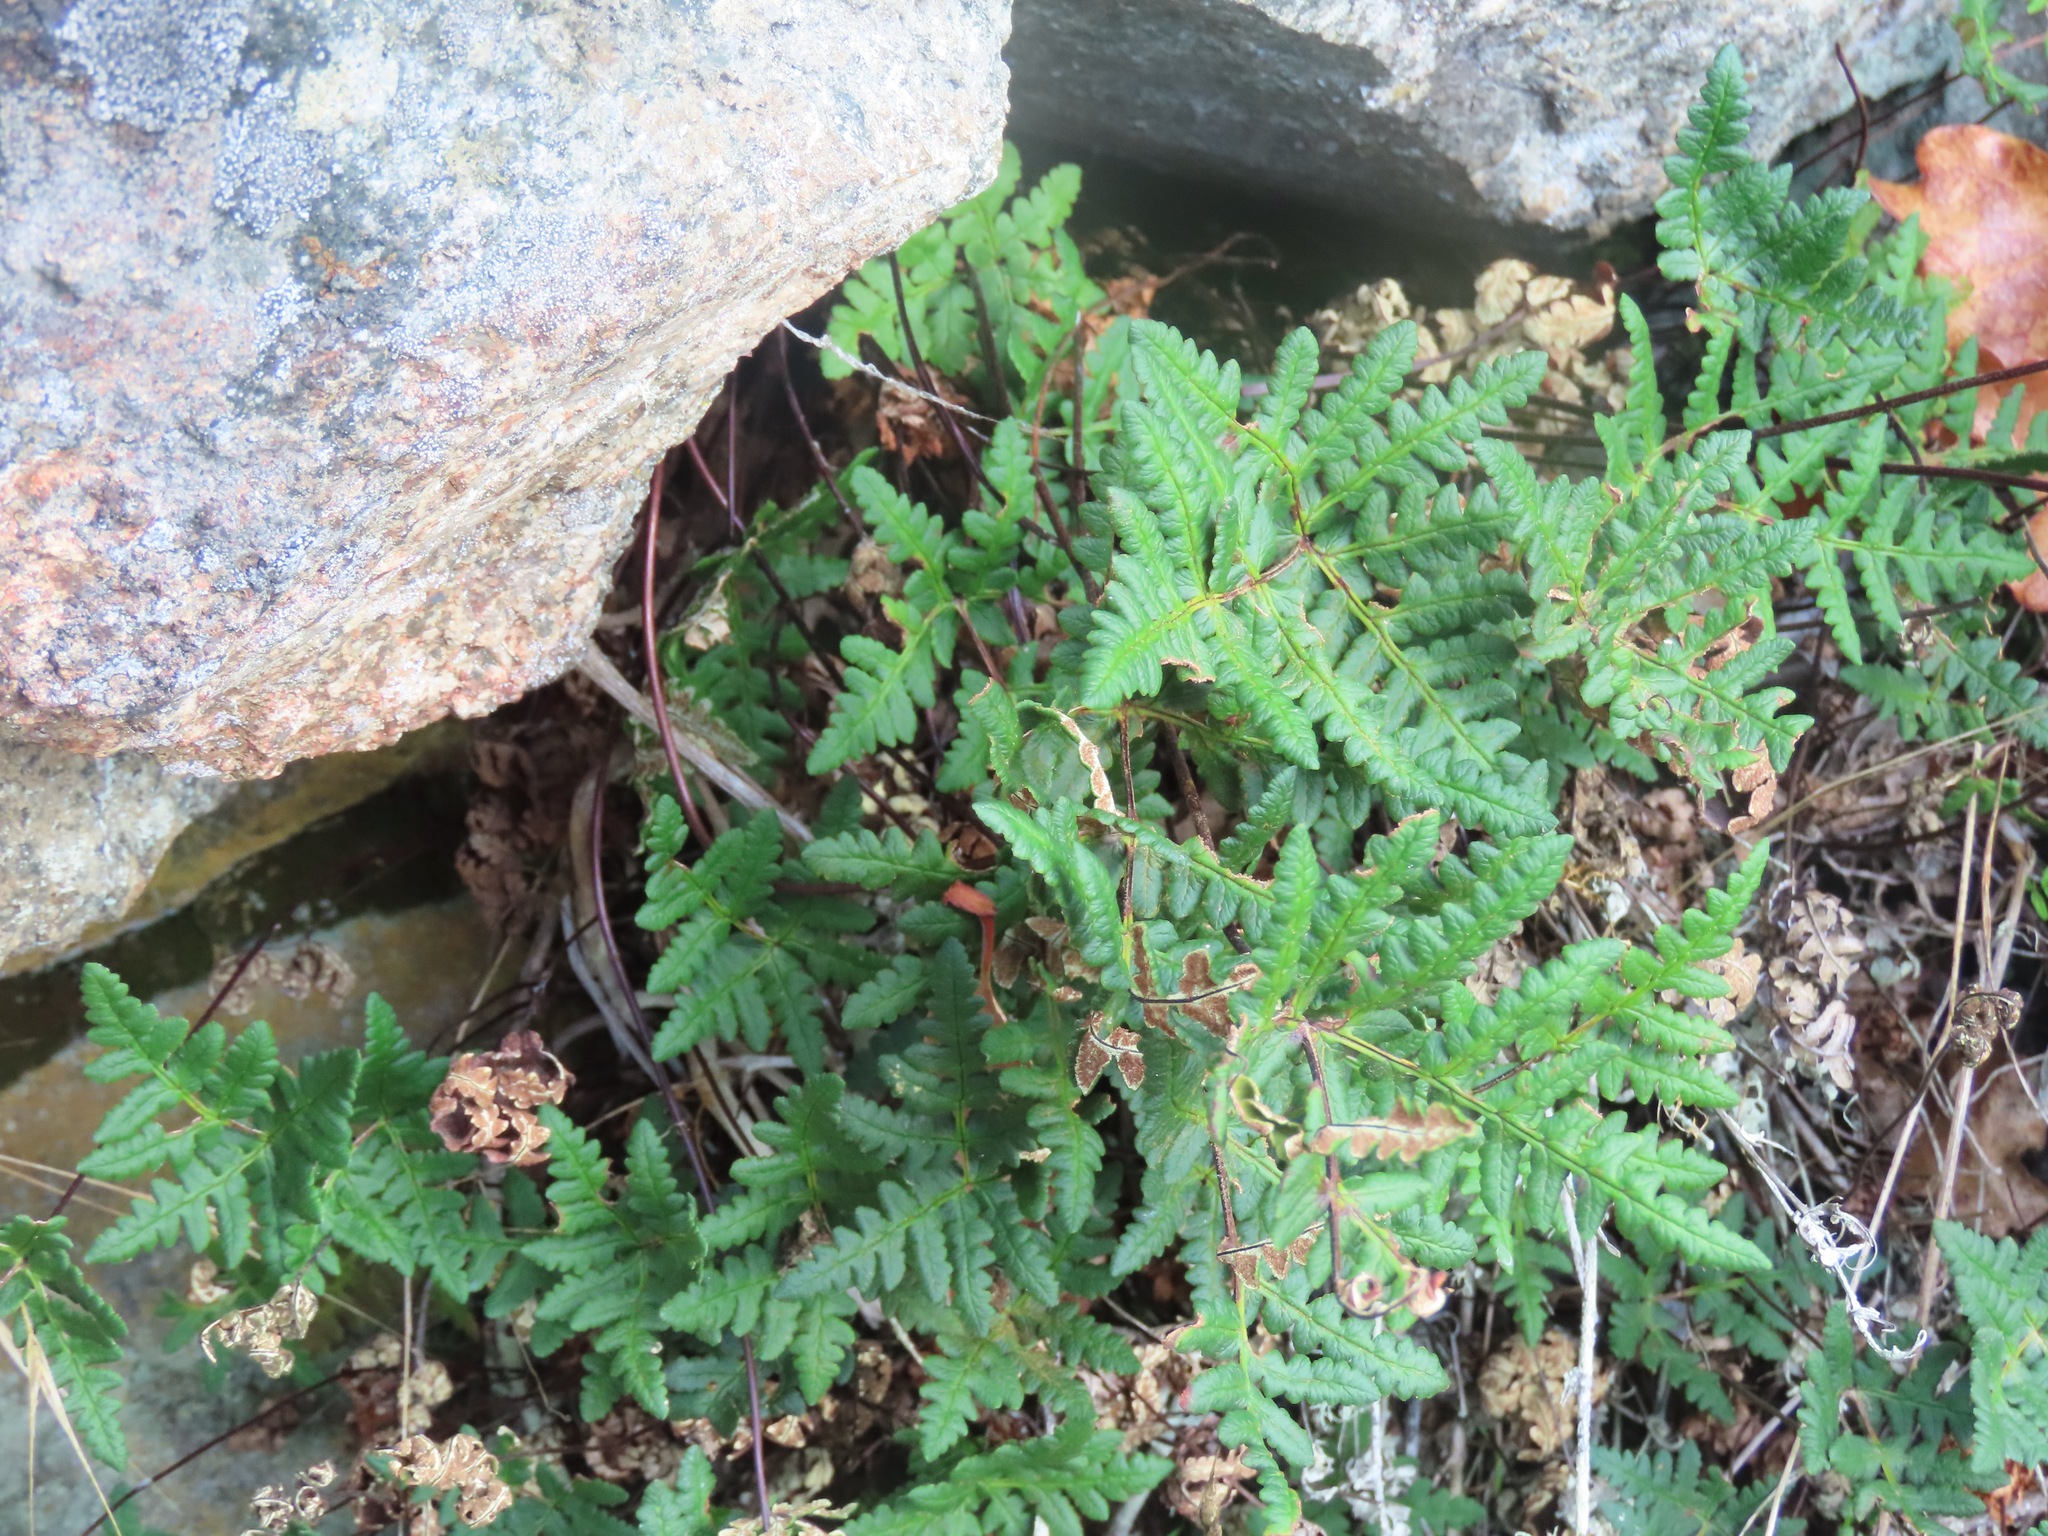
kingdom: Plantae
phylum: Tracheophyta
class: Polypodiopsida
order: Polypodiales
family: Pteridaceae
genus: Pentagramma
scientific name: Pentagramma triangularis
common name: Gold fern
